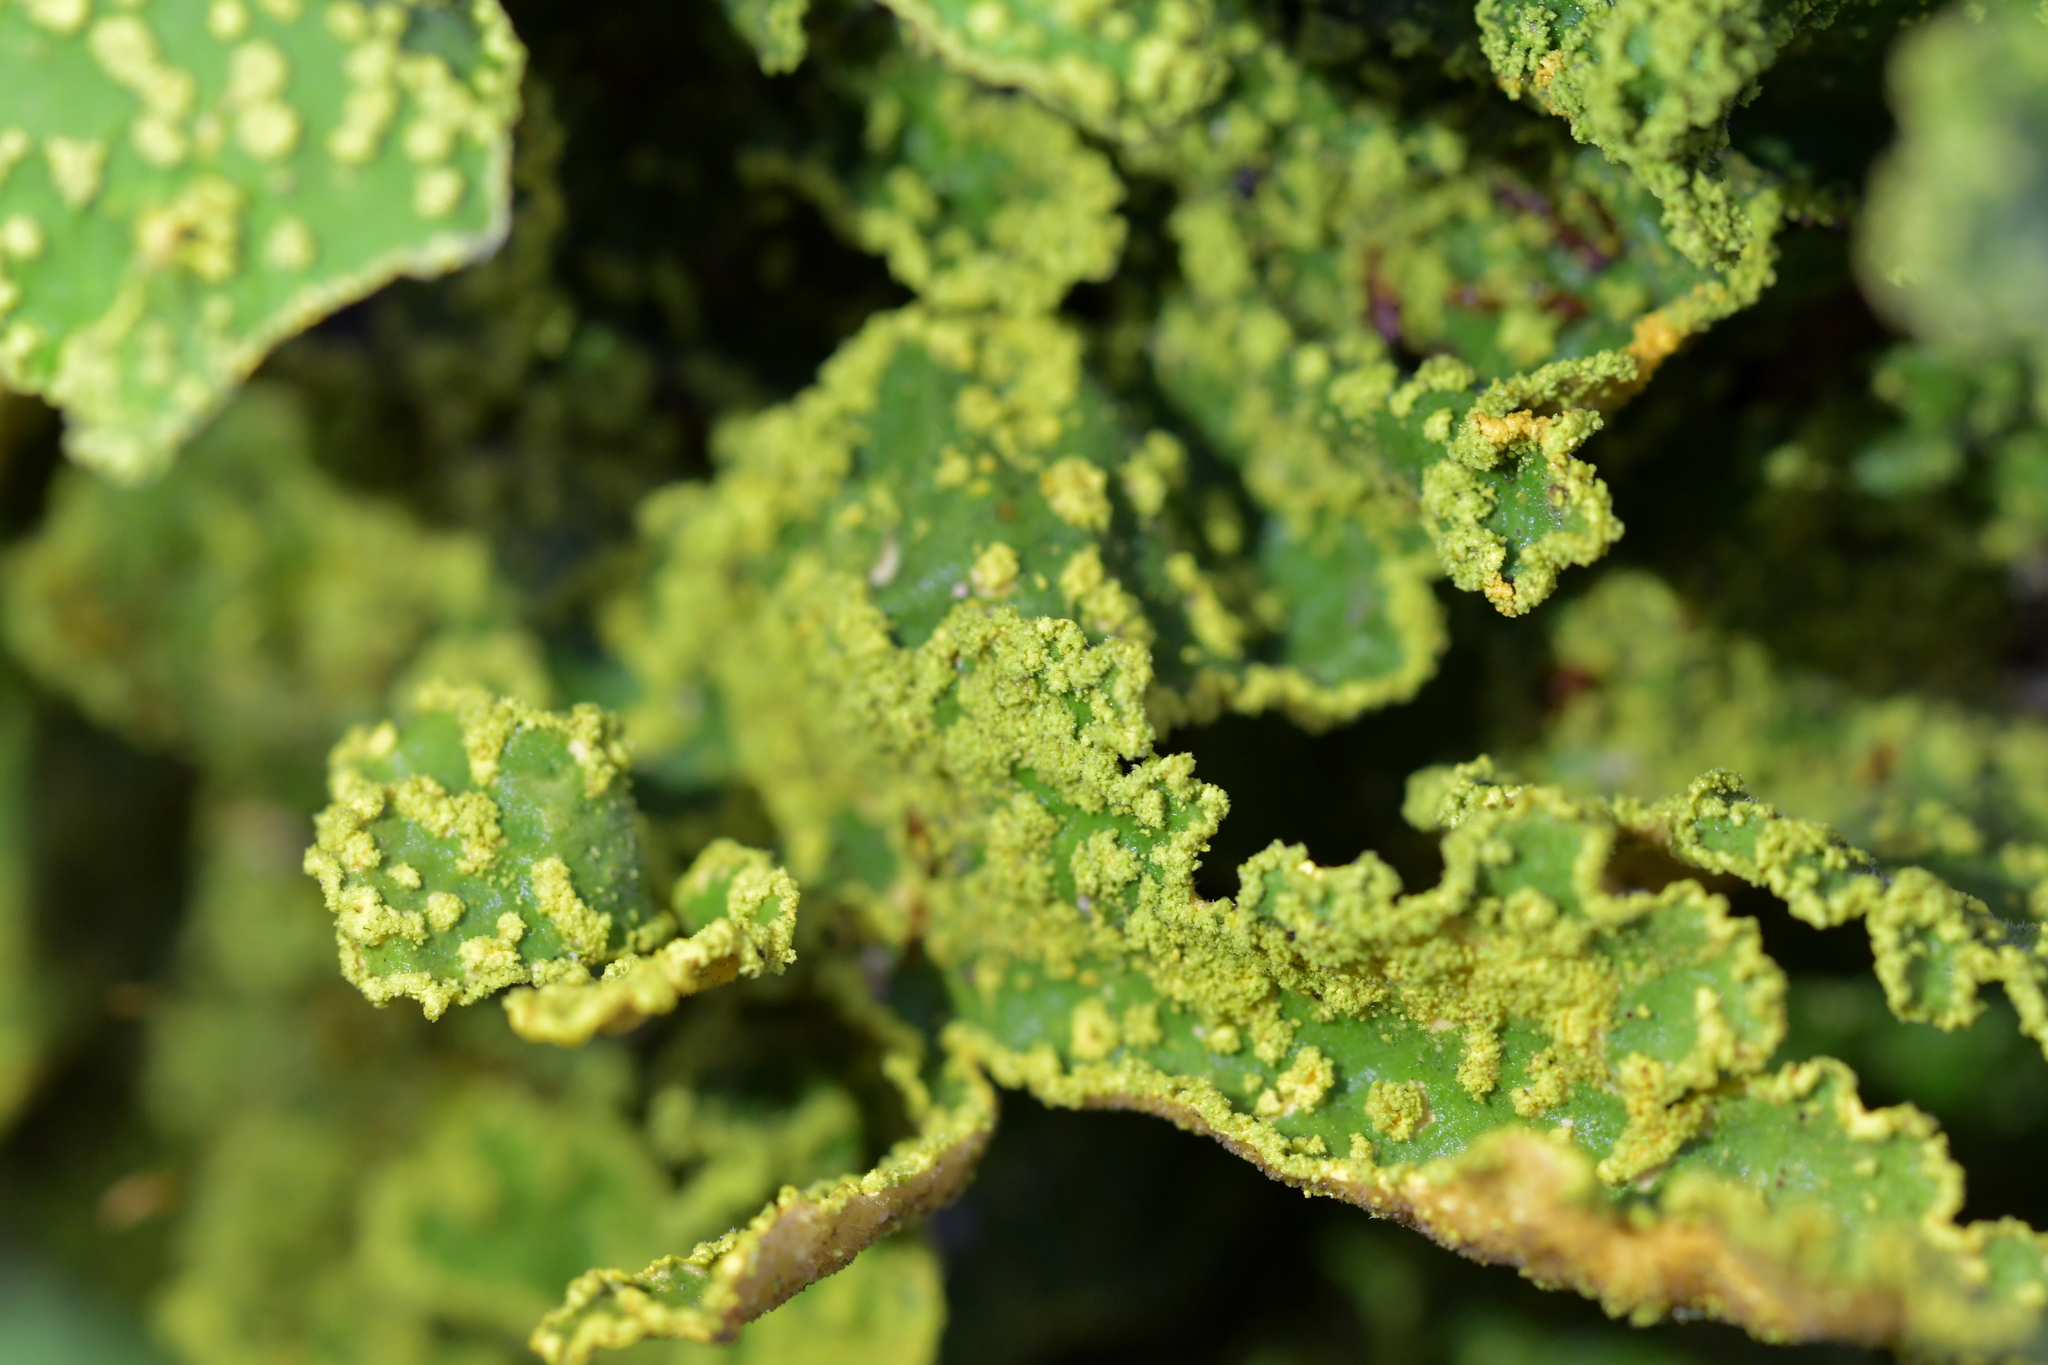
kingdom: Fungi
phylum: Ascomycota
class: Lecanoromycetes
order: Peltigerales
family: Lobariaceae
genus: Pseudocyphellaria
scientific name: Pseudocyphellaria rubella
